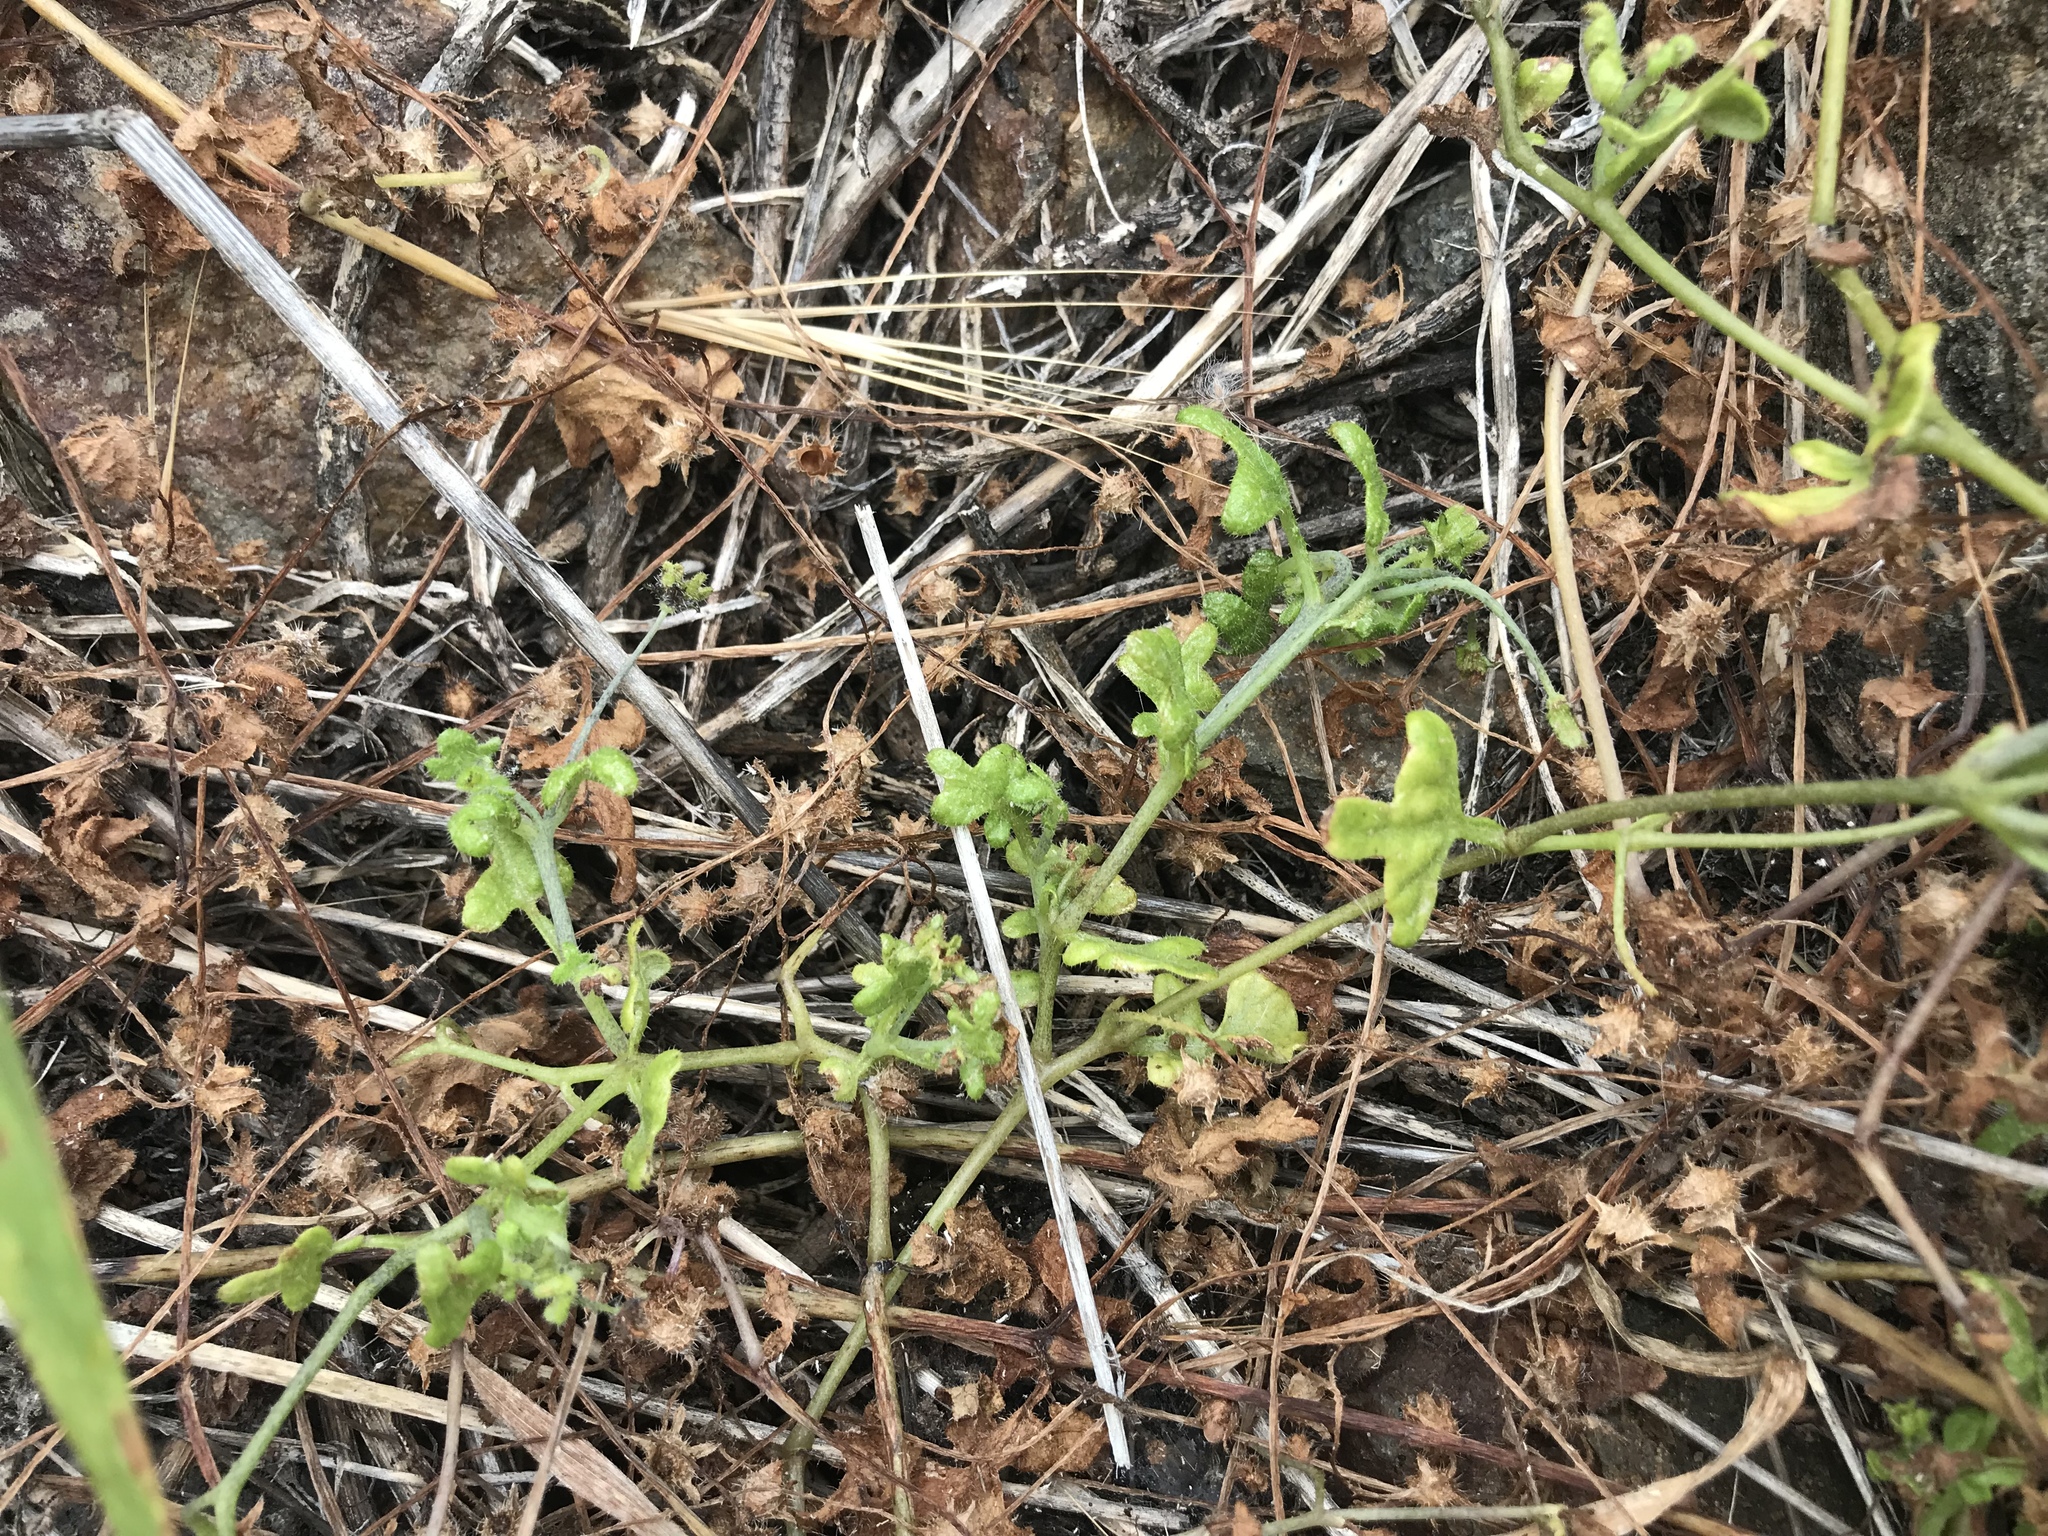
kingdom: Plantae
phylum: Tracheophyta
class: Magnoliopsida
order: Boraginales
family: Hydrophyllaceae
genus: Pholistoma
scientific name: Pholistoma racemosum
